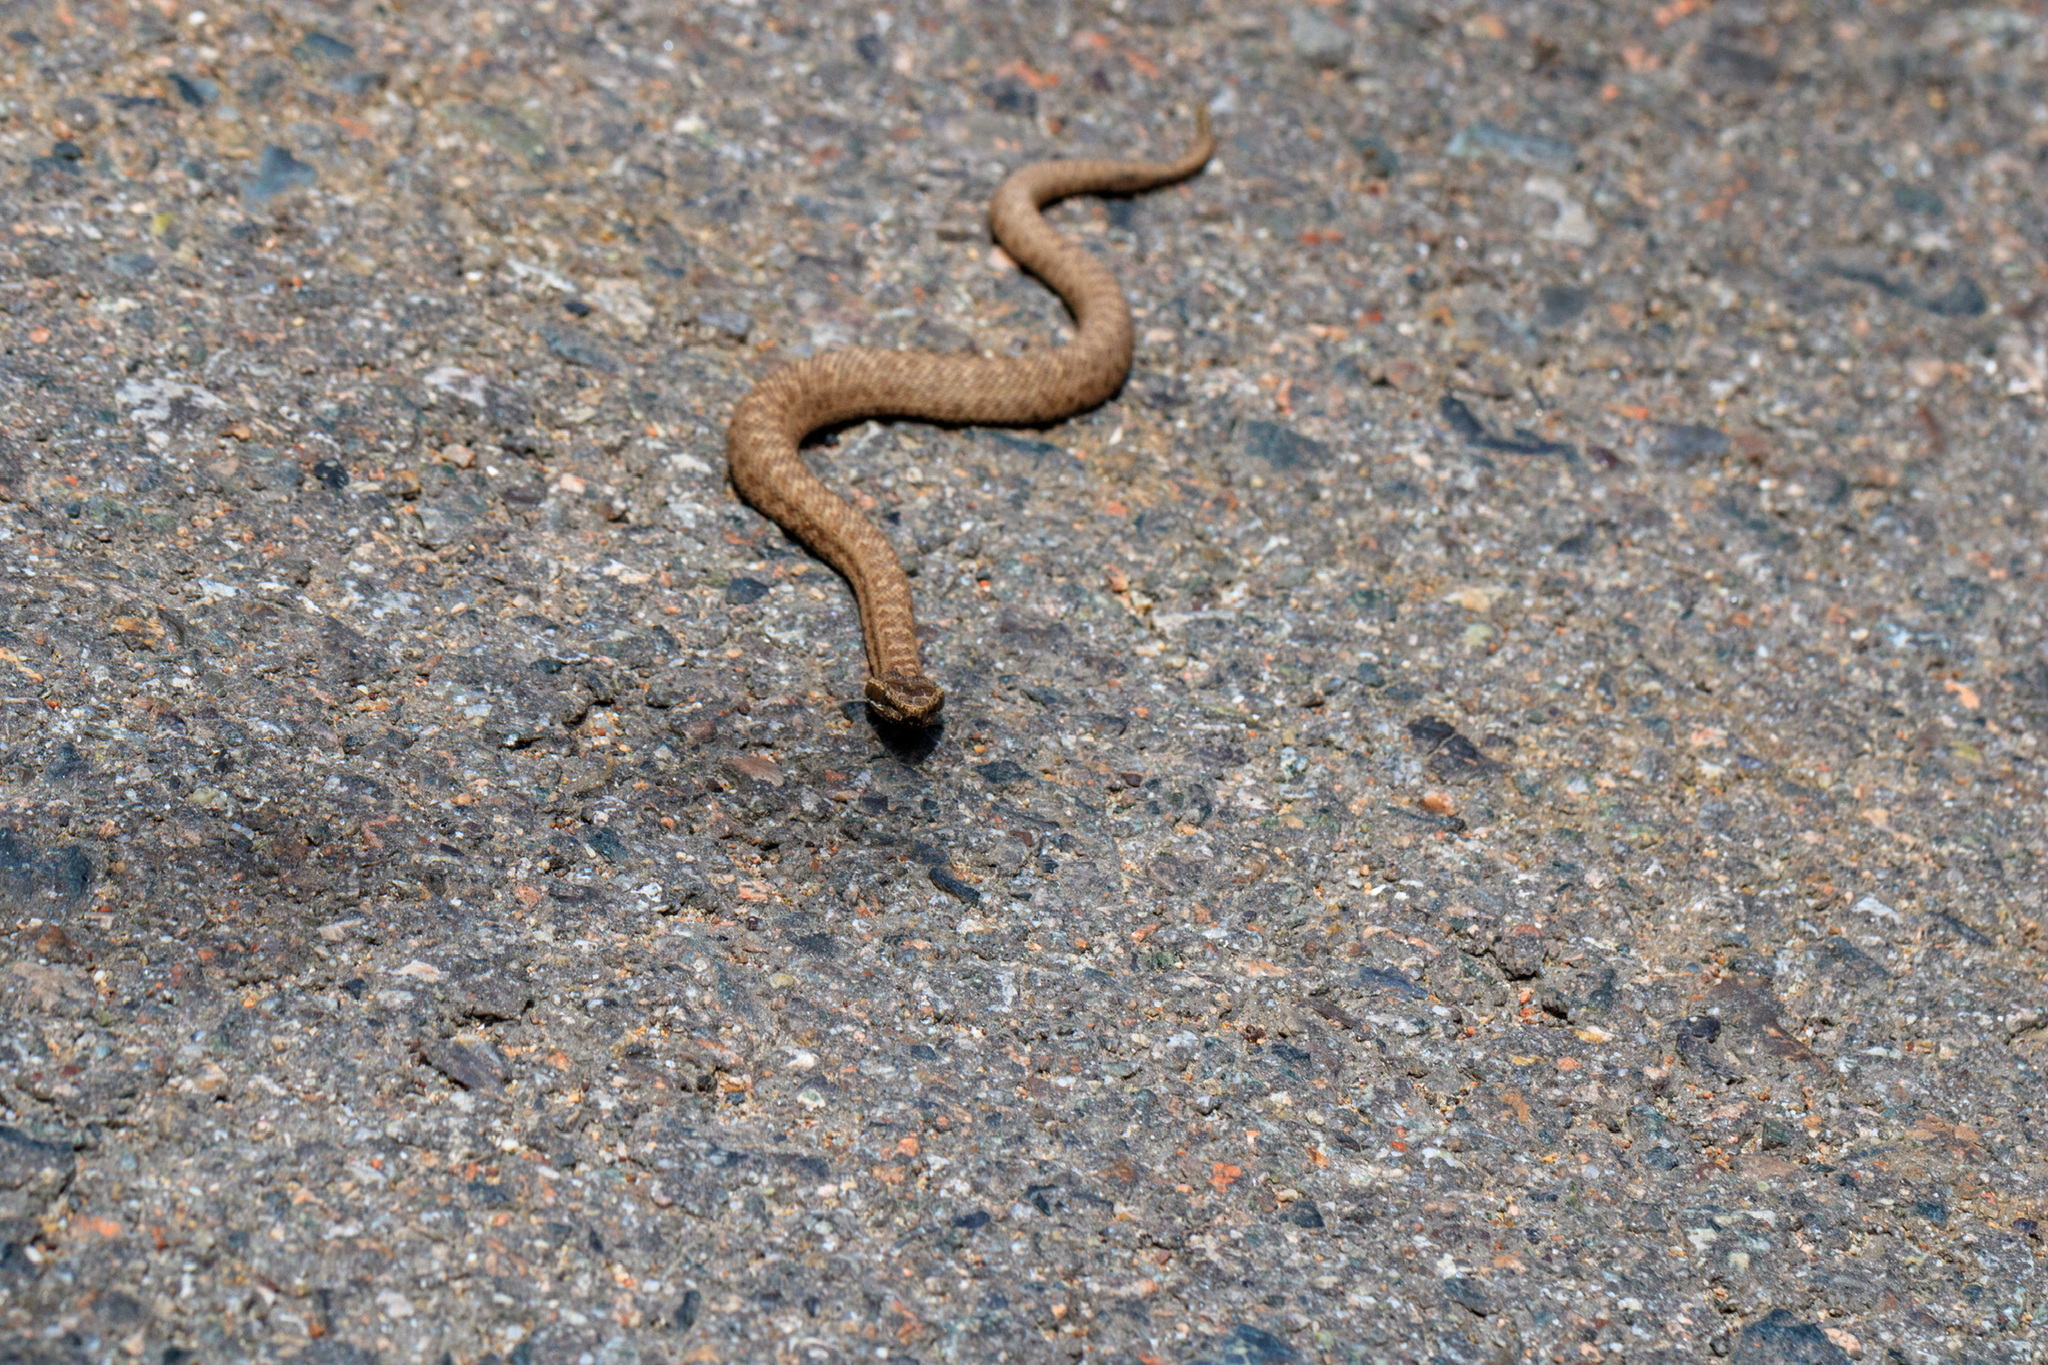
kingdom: Animalia
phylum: Chordata
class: Squamata
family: Viperidae
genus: Gloydius
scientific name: Gloydius caraganus
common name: Karaganda pitviper
